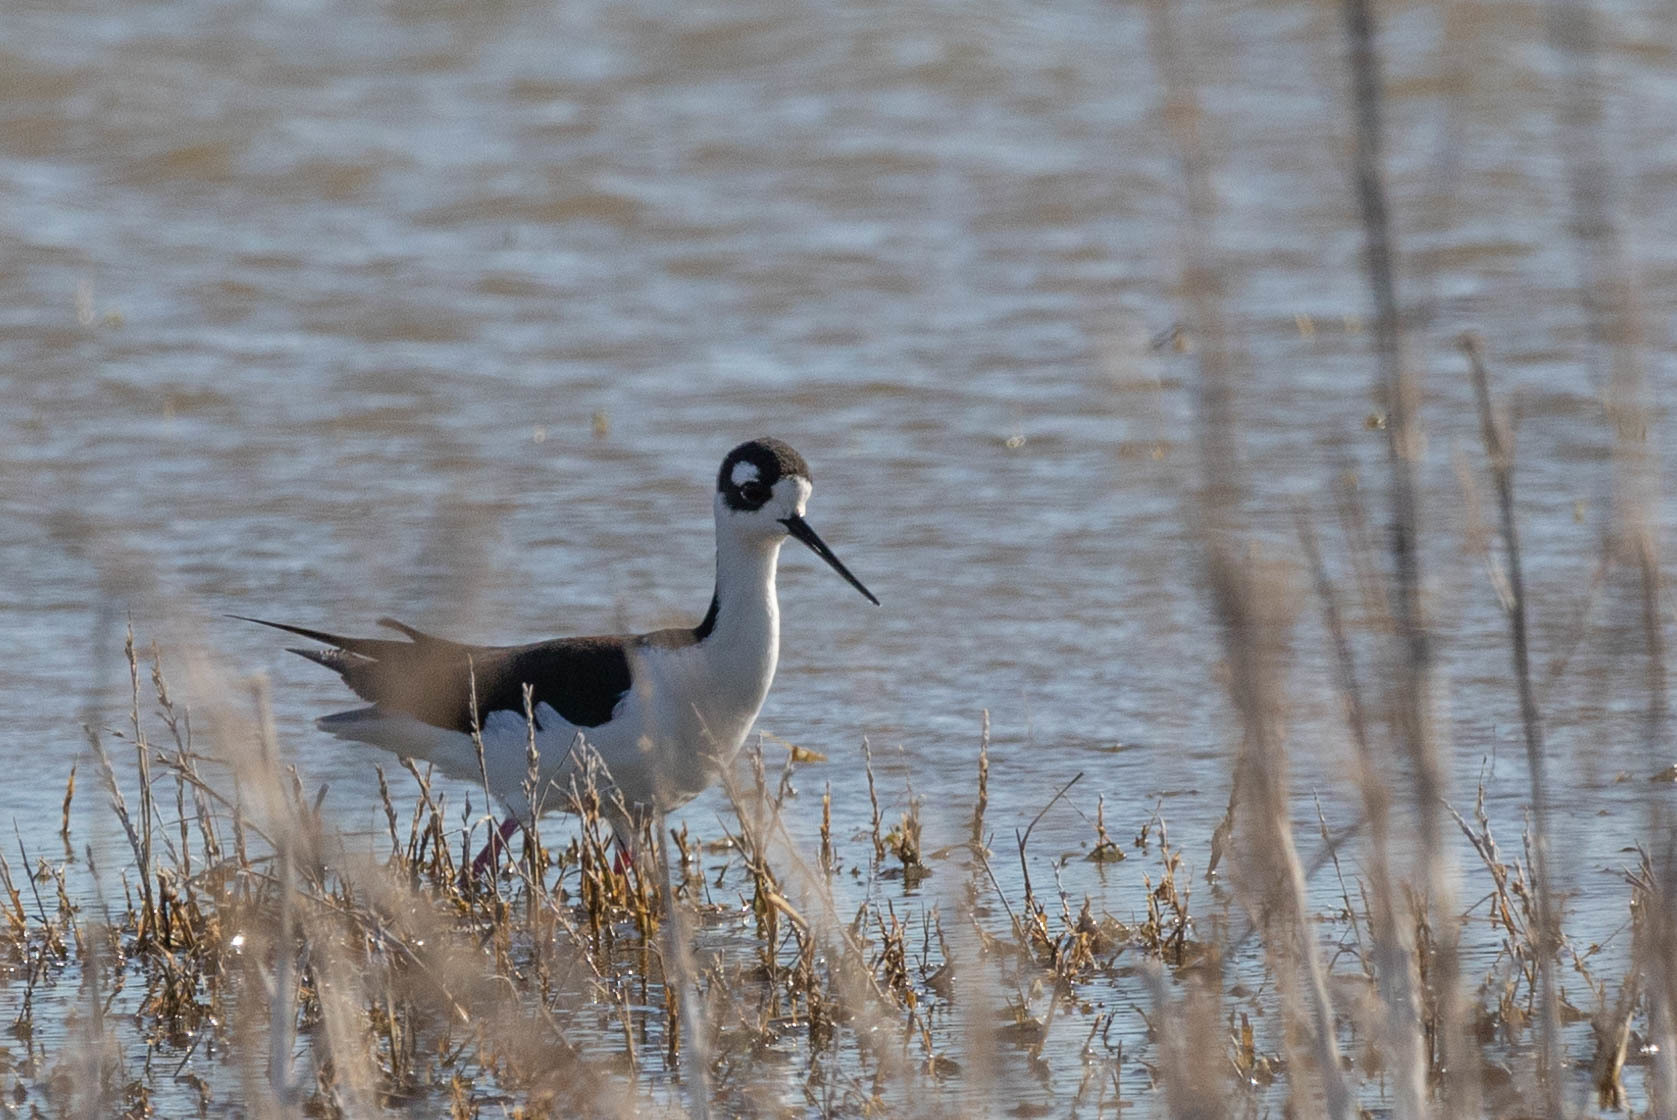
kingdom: Animalia
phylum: Chordata
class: Aves
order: Charadriiformes
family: Recurvirostridae
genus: Himantopus
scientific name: Himantopus mexicanus
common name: Black-necked stilt
